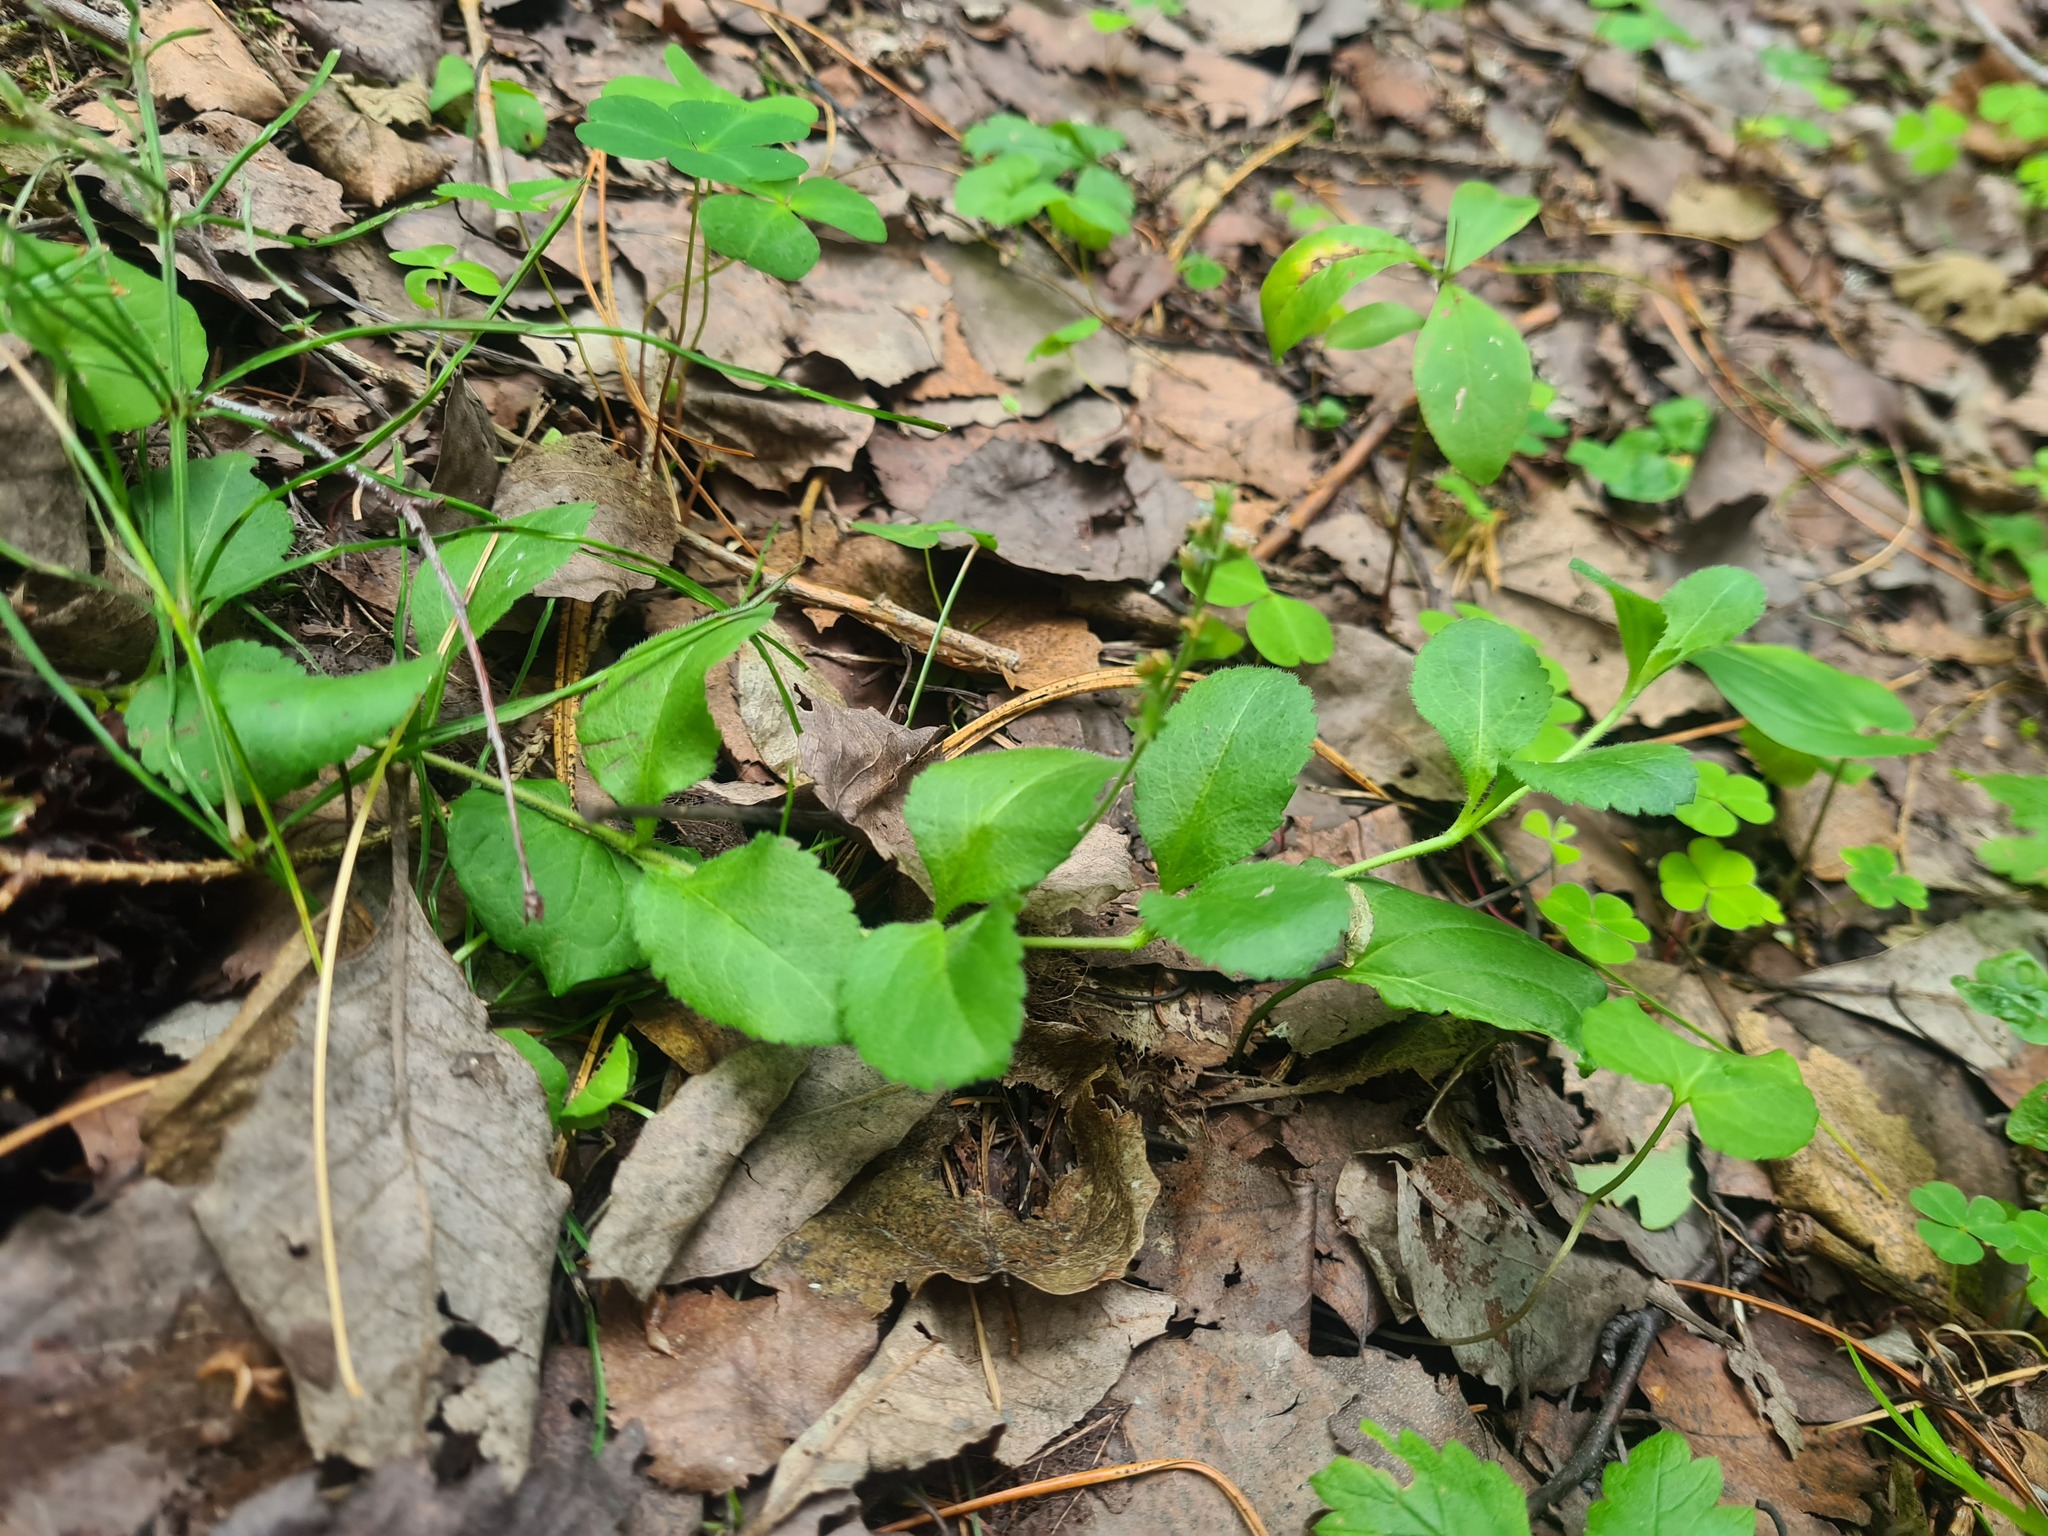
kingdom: Plantae
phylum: Tracheophyta
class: Magnoliopsida
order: Lamiales
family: Plantaginaceae
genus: Veronica
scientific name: Veronica officinalis
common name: Common speedwell
